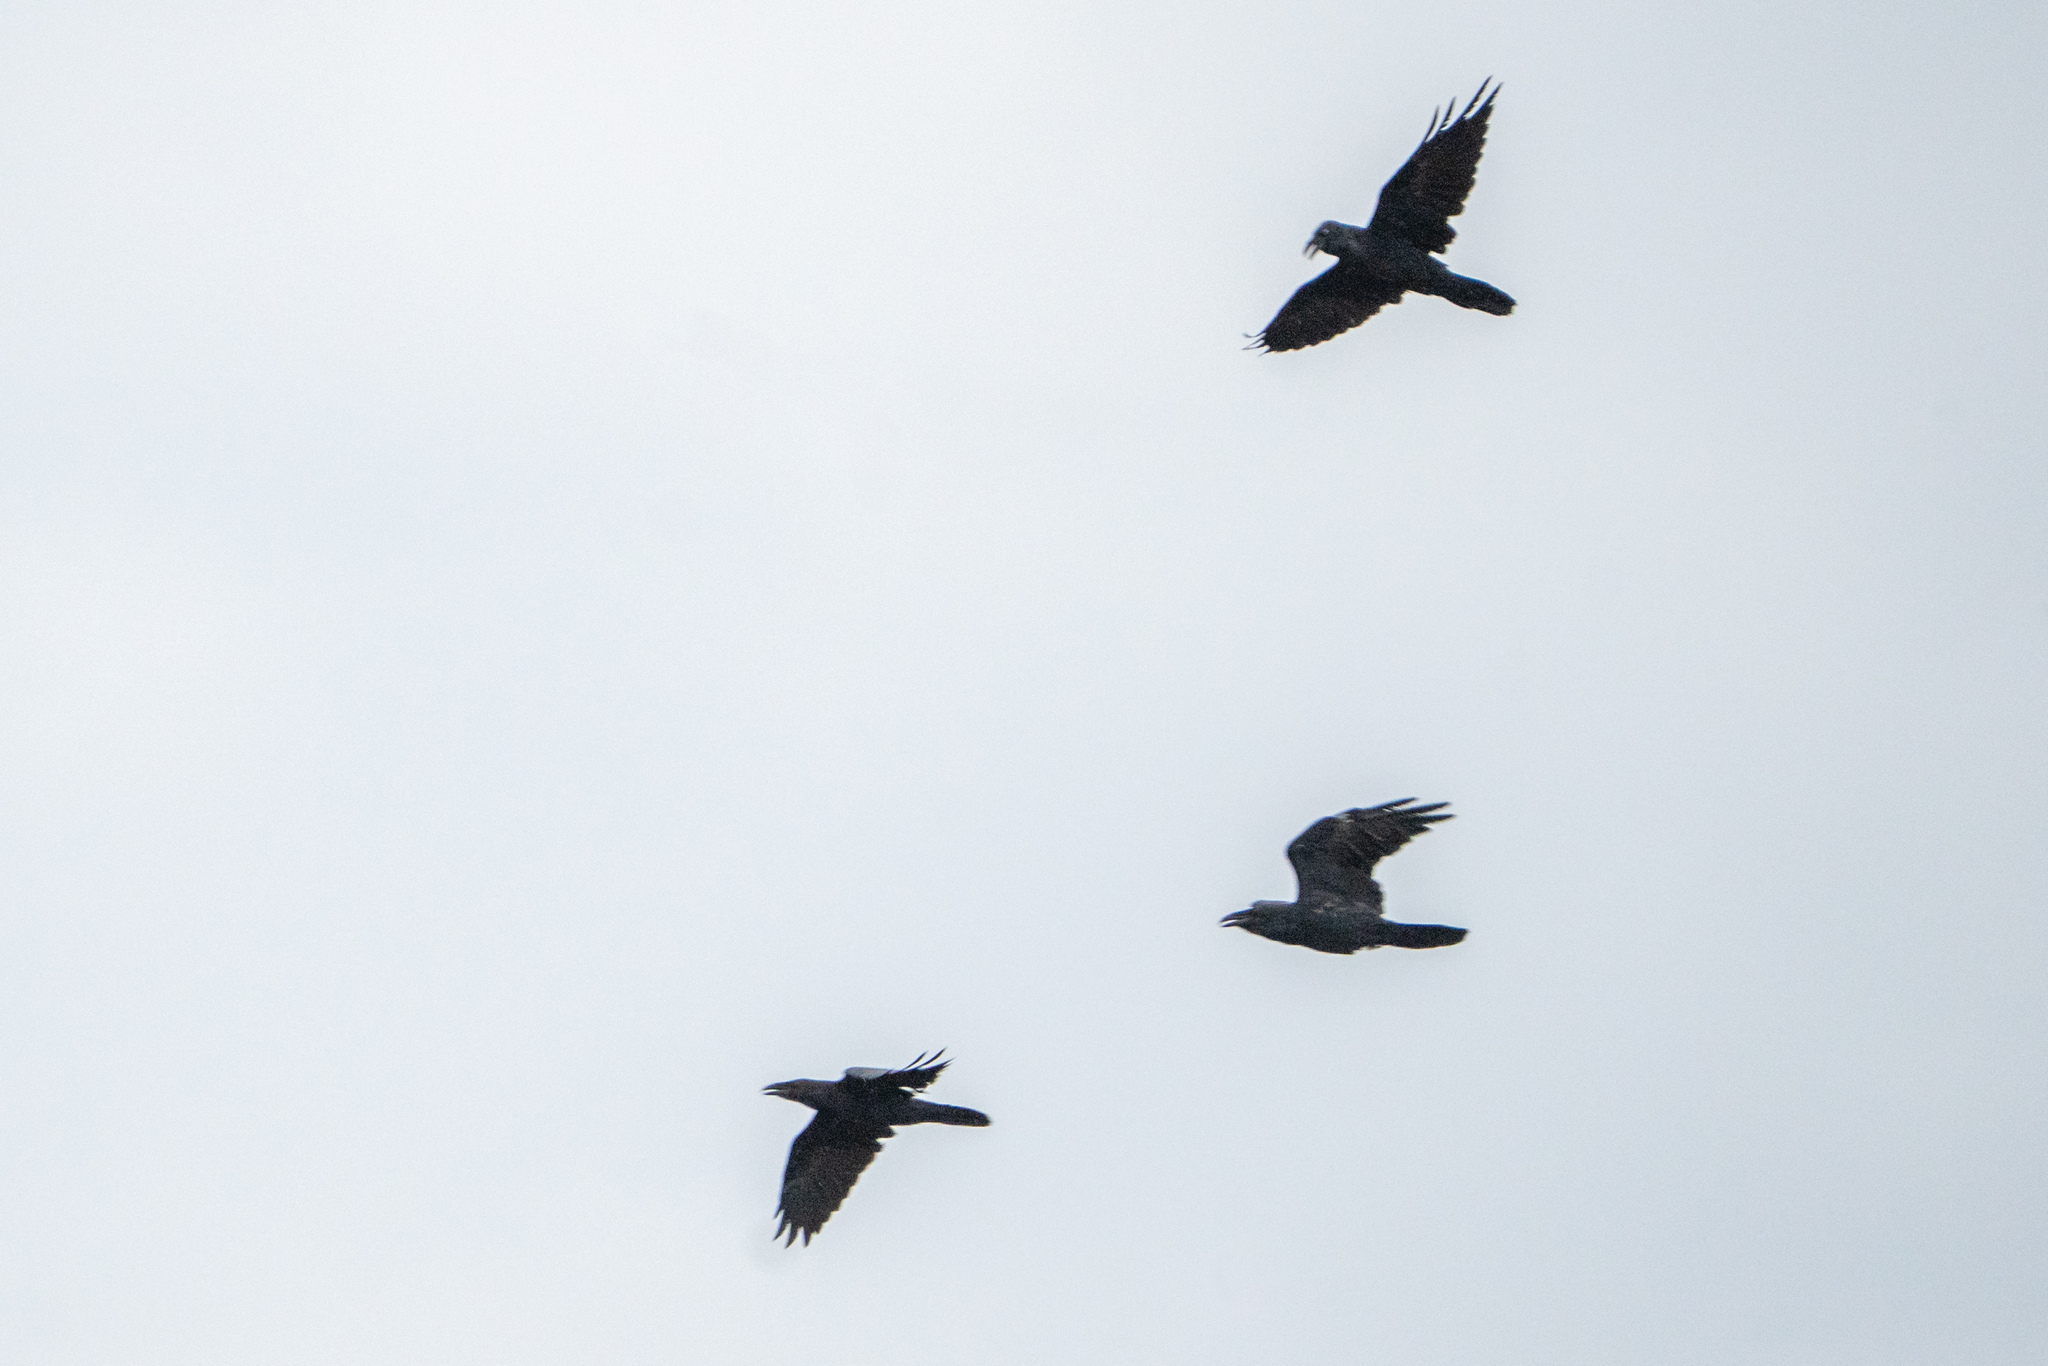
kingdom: Animalia
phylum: Chordata
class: Aves
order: Passeriformes
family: Corvidae
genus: Corvus
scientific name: Corvus corax
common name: Common raven
